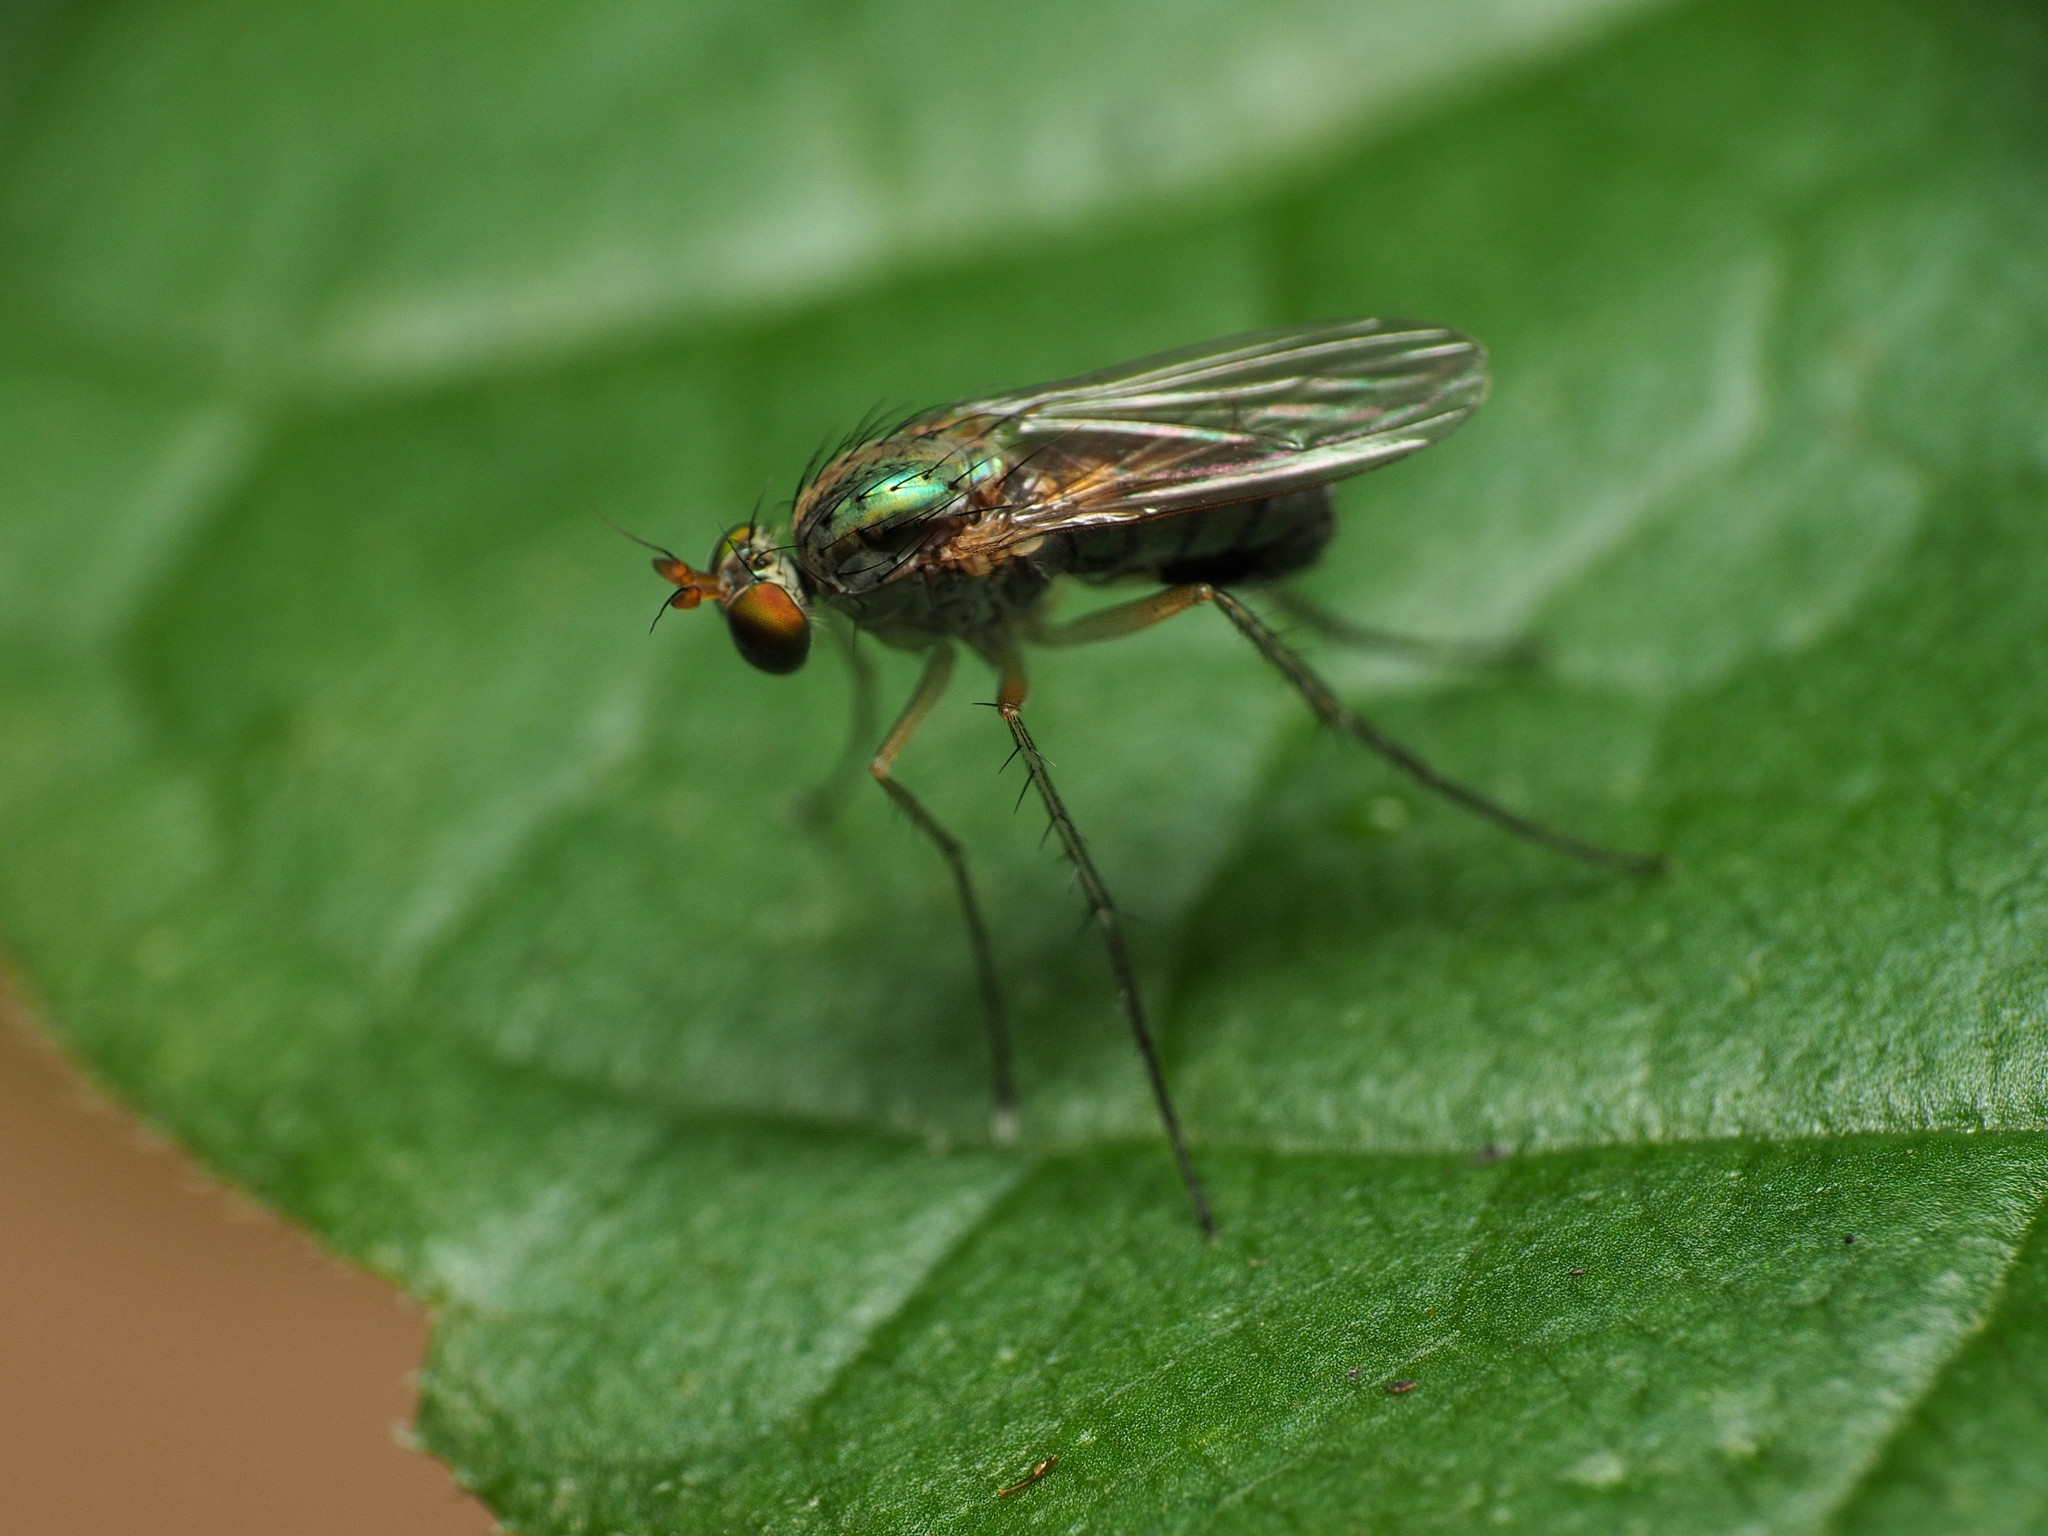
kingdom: Animalia
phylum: Arthropoda
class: Insecta
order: Diptera
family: Dolichopodidae
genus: Dolichopus
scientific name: Dolichopus funditor
